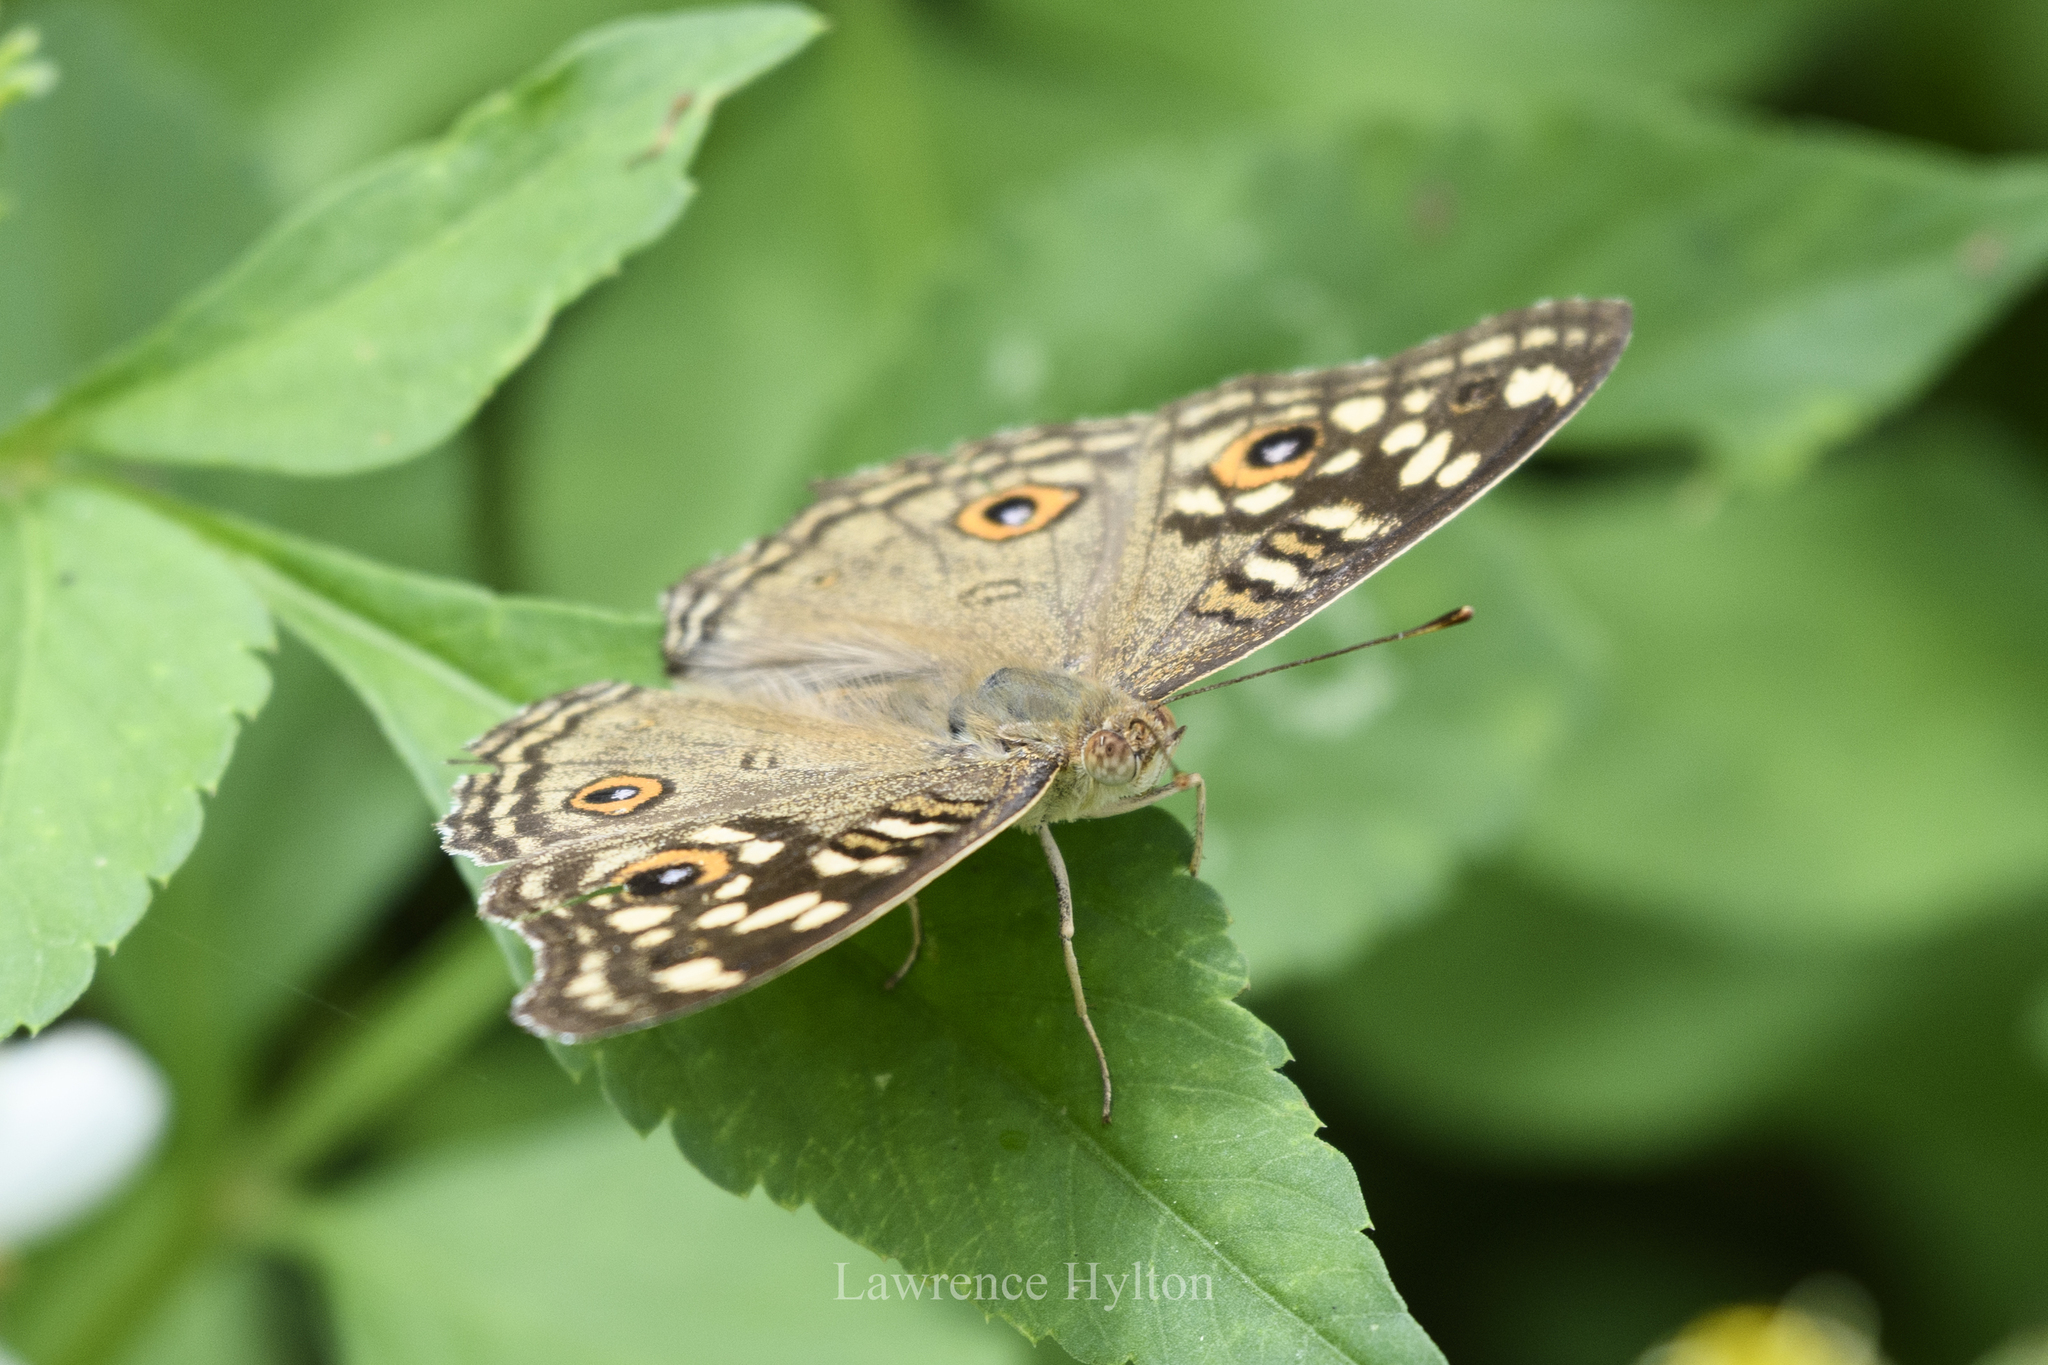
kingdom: Animalia
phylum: Arthropoda
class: Insecta
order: Lepidoptera
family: Nymphalidae
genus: Junonia
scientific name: Junonia lemonias
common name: Lemon pansy
